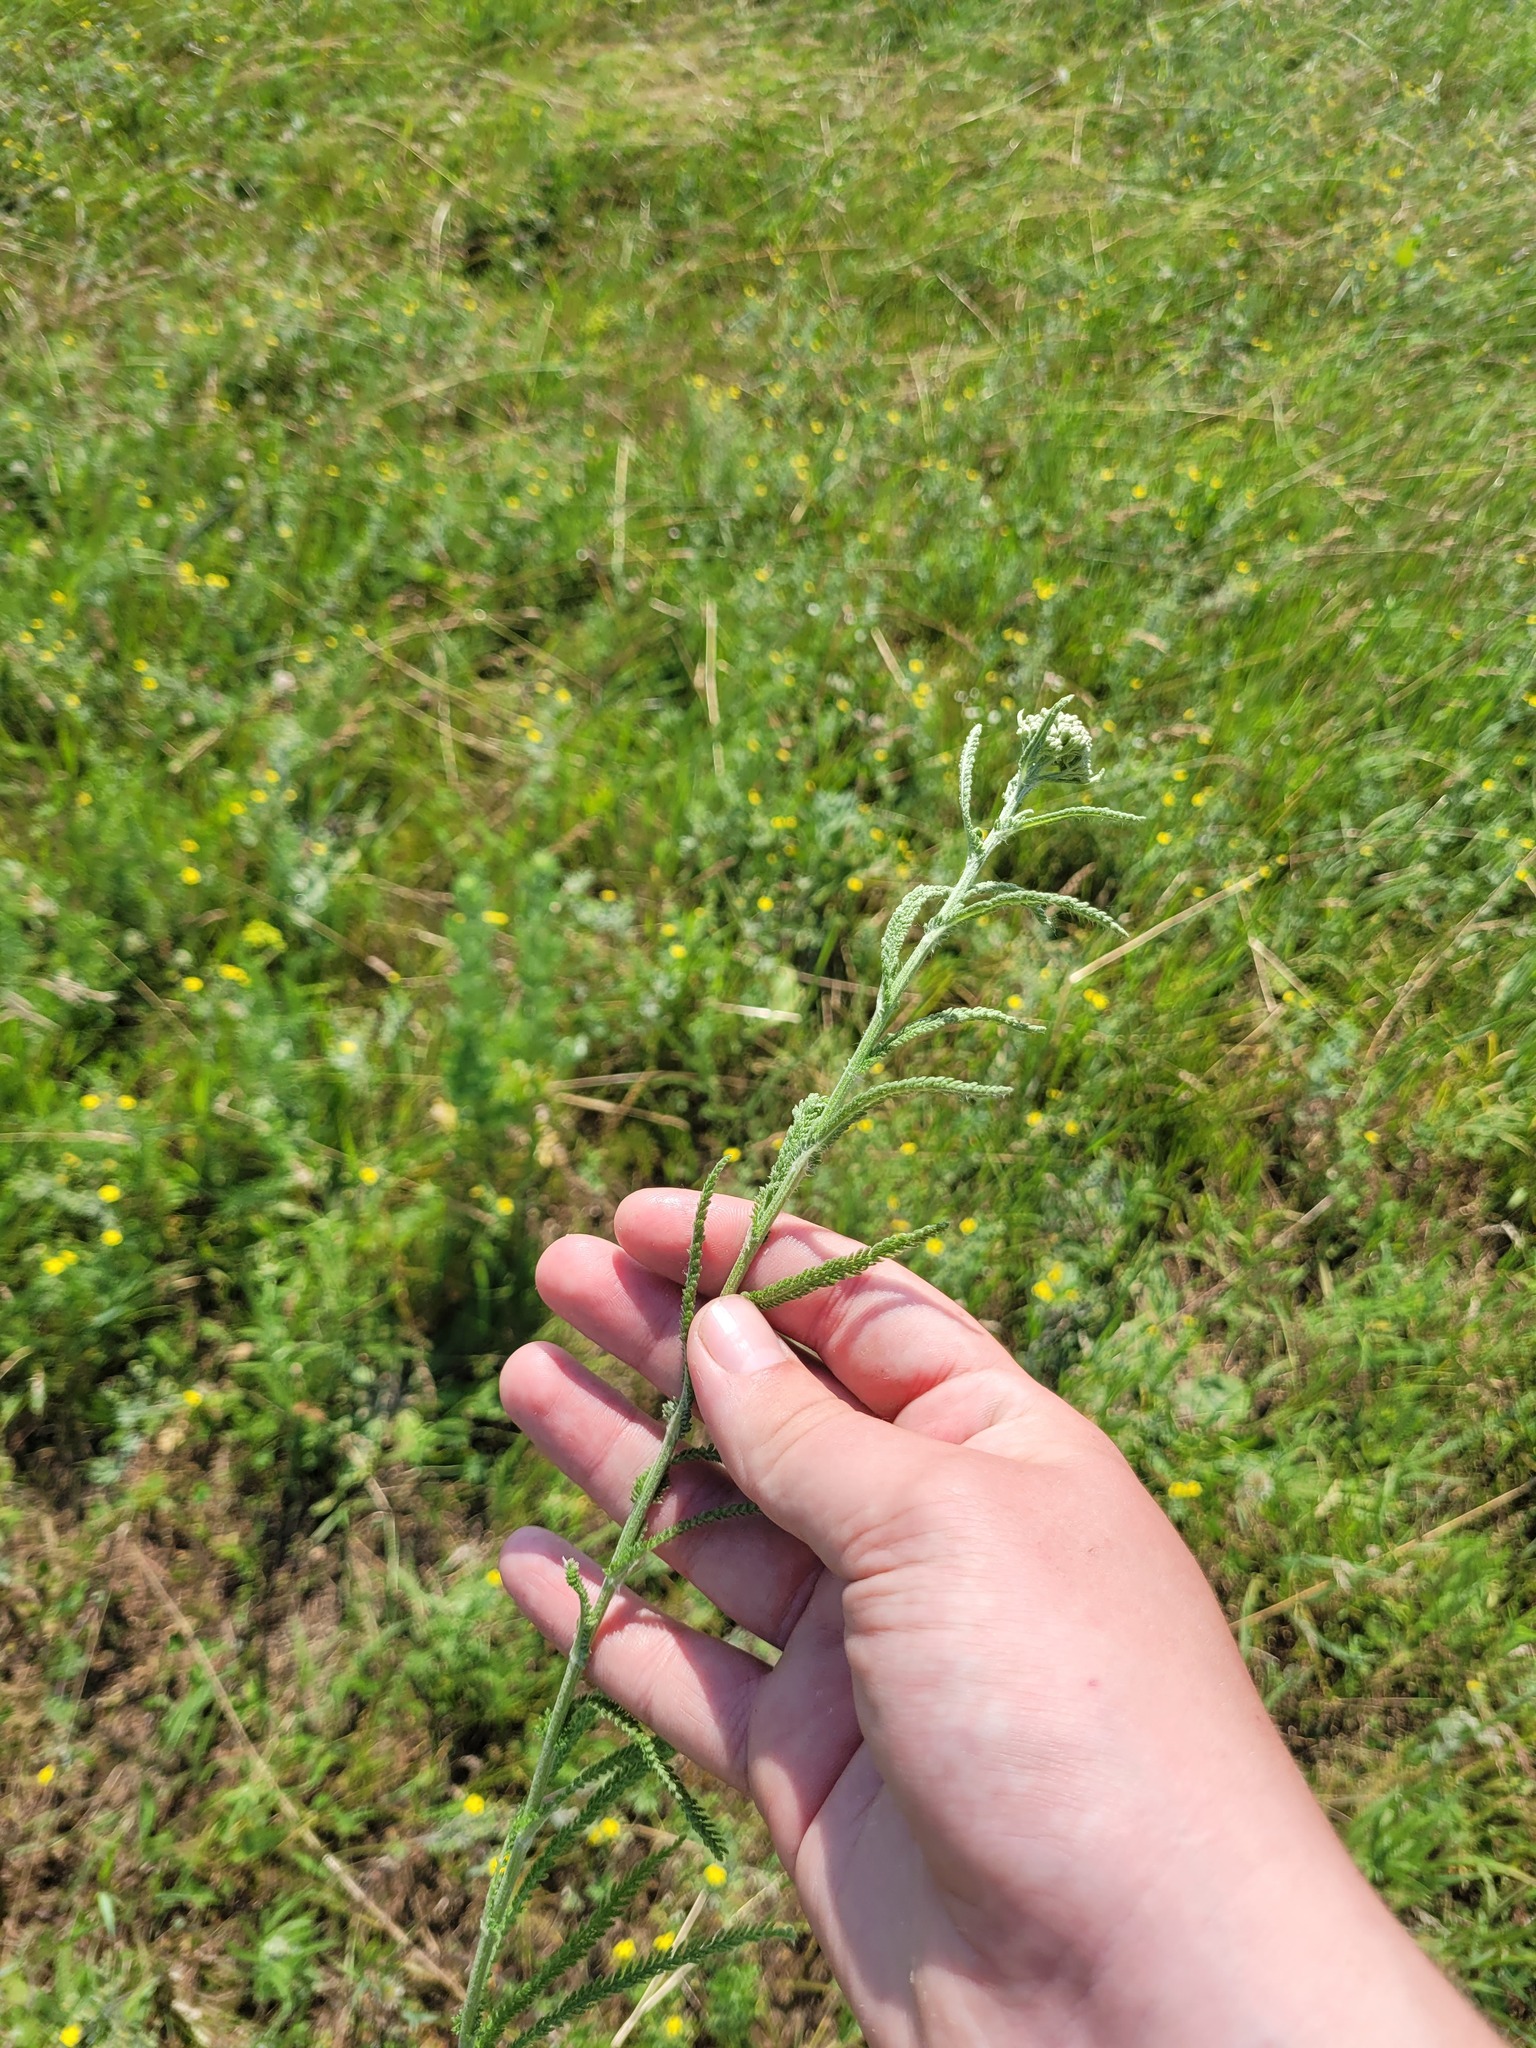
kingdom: Plantae
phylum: Tracheophyta
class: Magnoliopsida
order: Asterales
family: Asteraceae
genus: Achillea
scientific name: Achillea setacea
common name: Bristly yarrow
